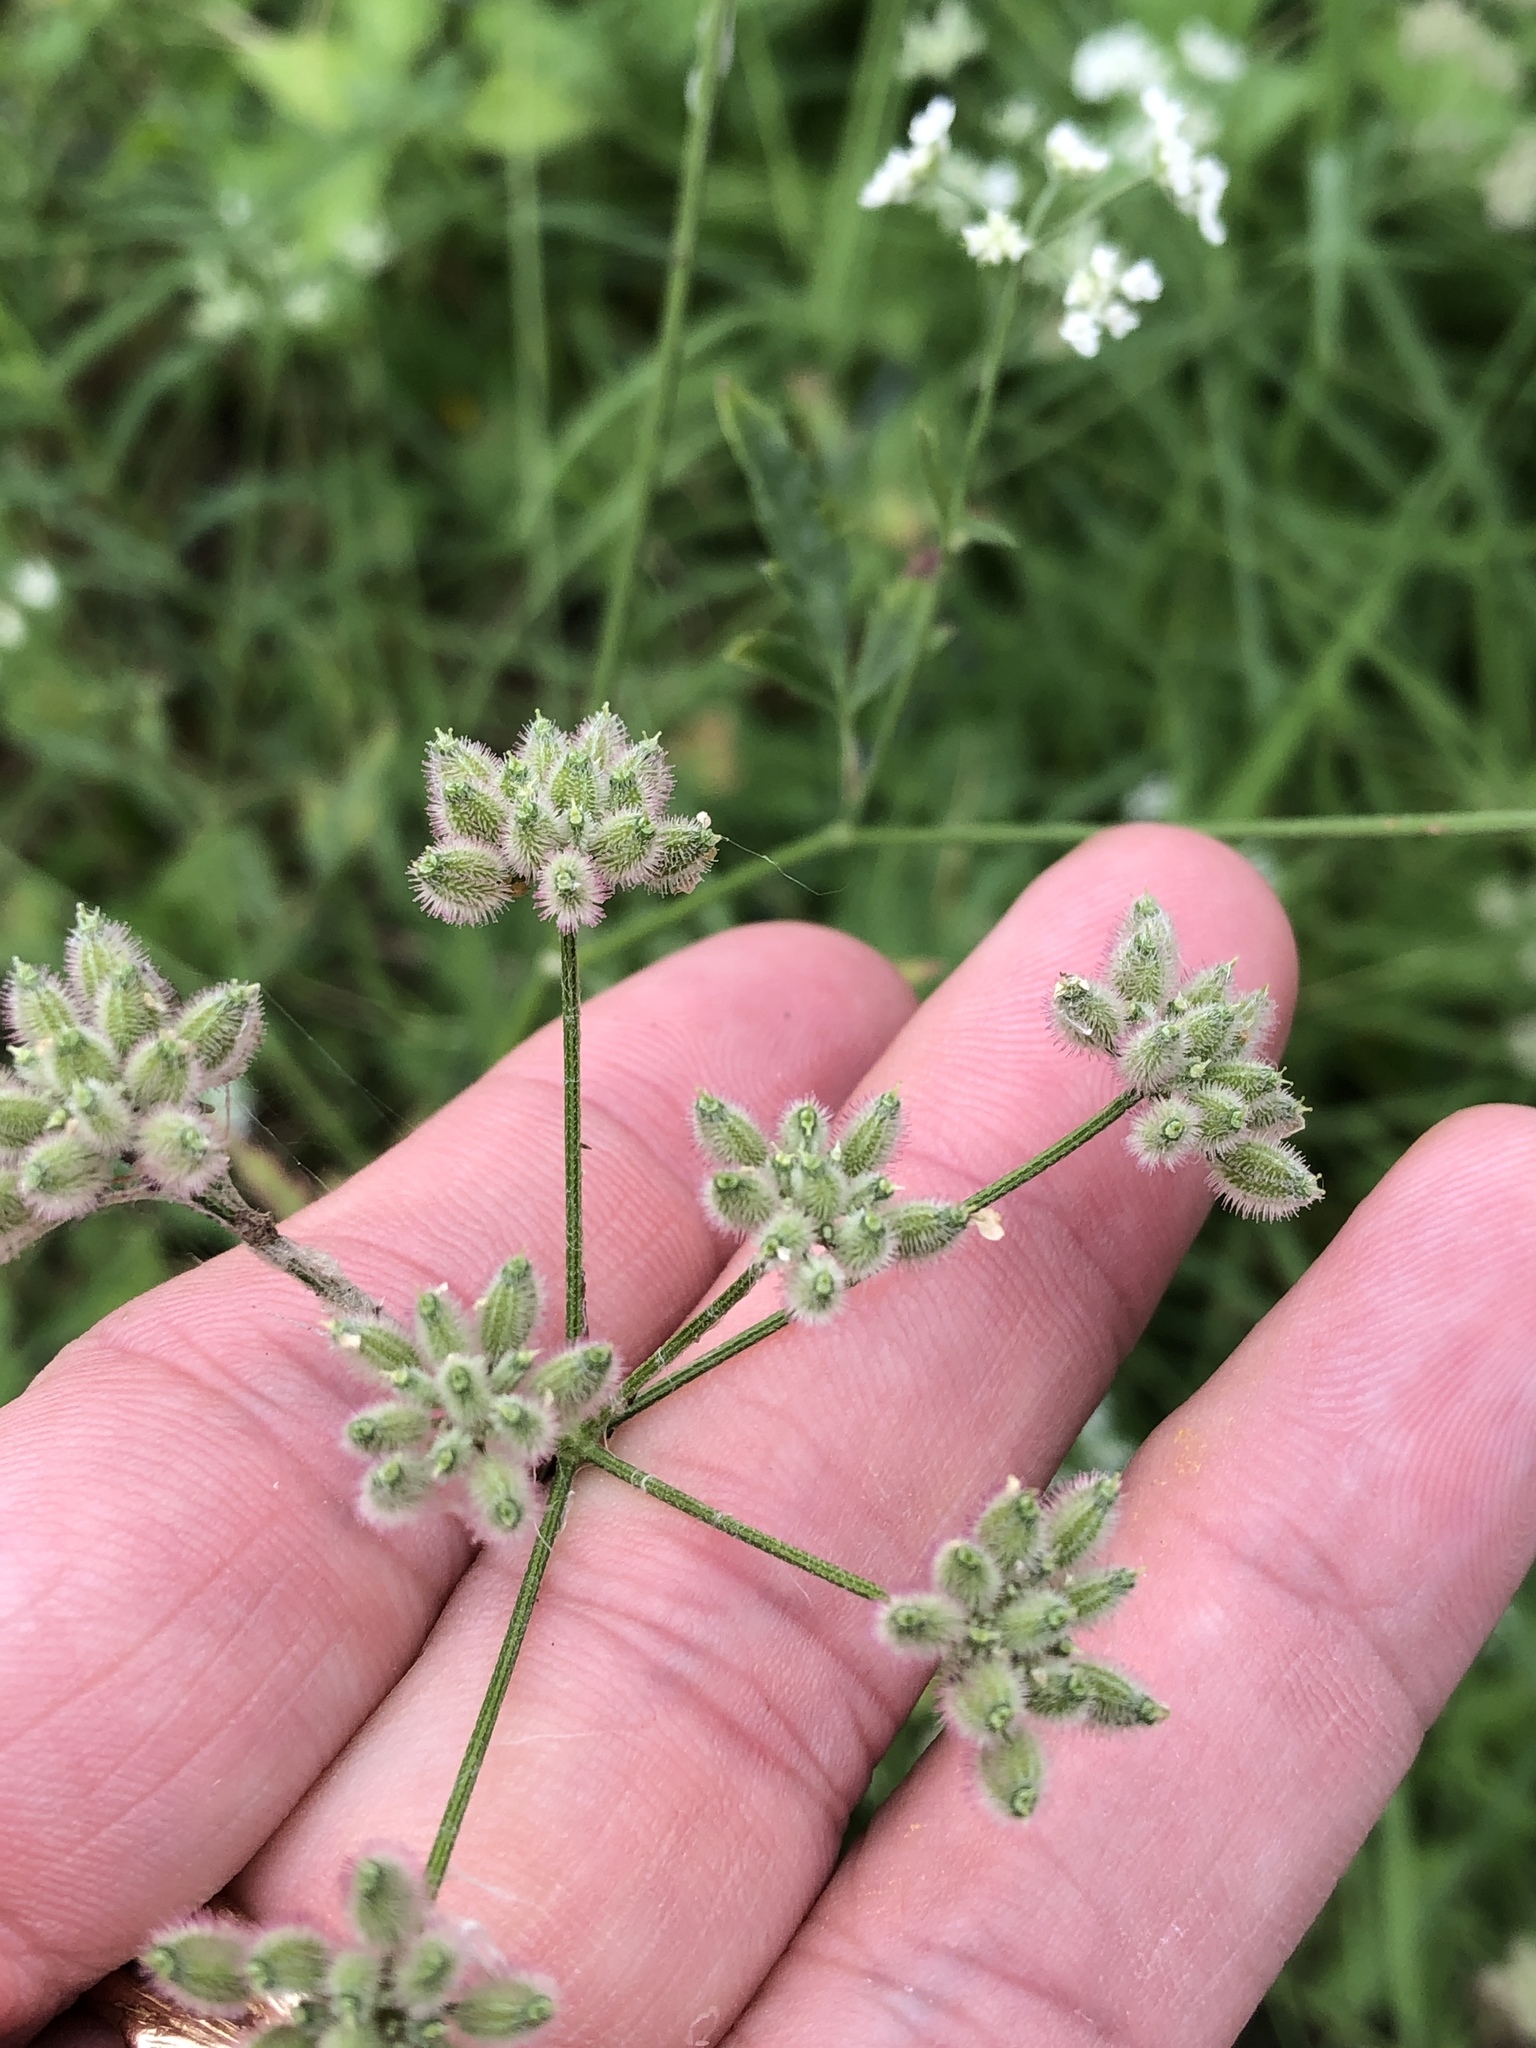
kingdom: Plantae
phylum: Tracheophyta
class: Magnoliopsida
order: Apiales
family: Apiaceae
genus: Torilis
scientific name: Torilis arvensis
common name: Spreading hedge-parsley
